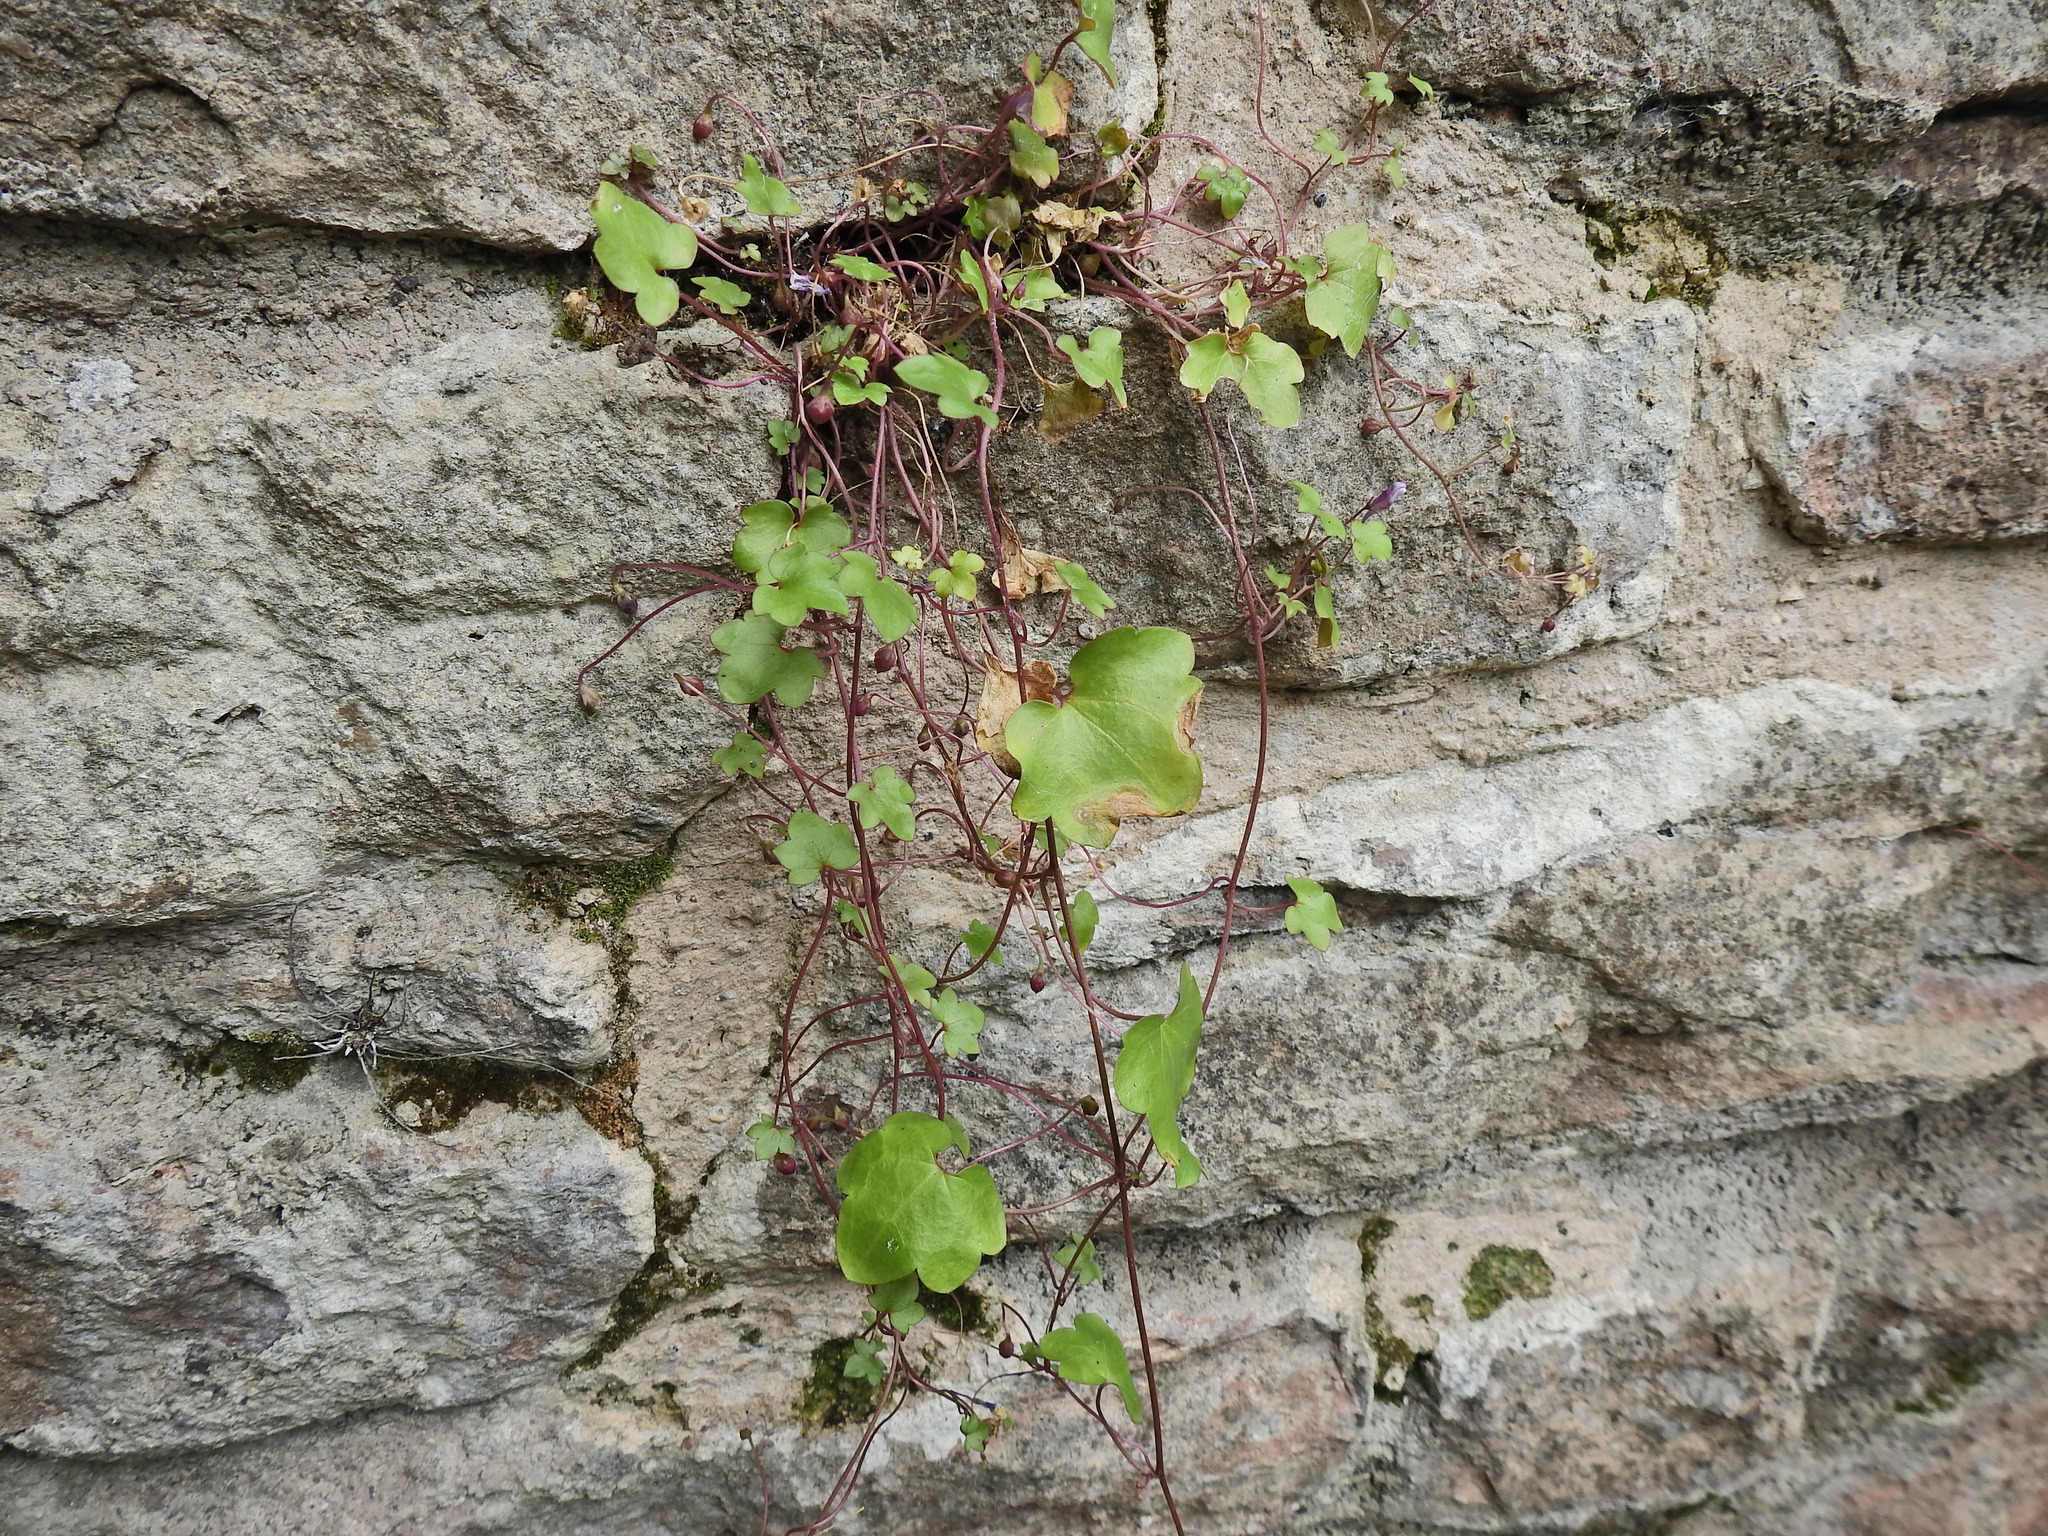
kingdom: Plantae
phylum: Tracheophyta
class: Magnoliopsida
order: Lamiales
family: Plantaginaceae
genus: Cymbalaria
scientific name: Cymbalaria muralis
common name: Ivy-leaved toadflax
